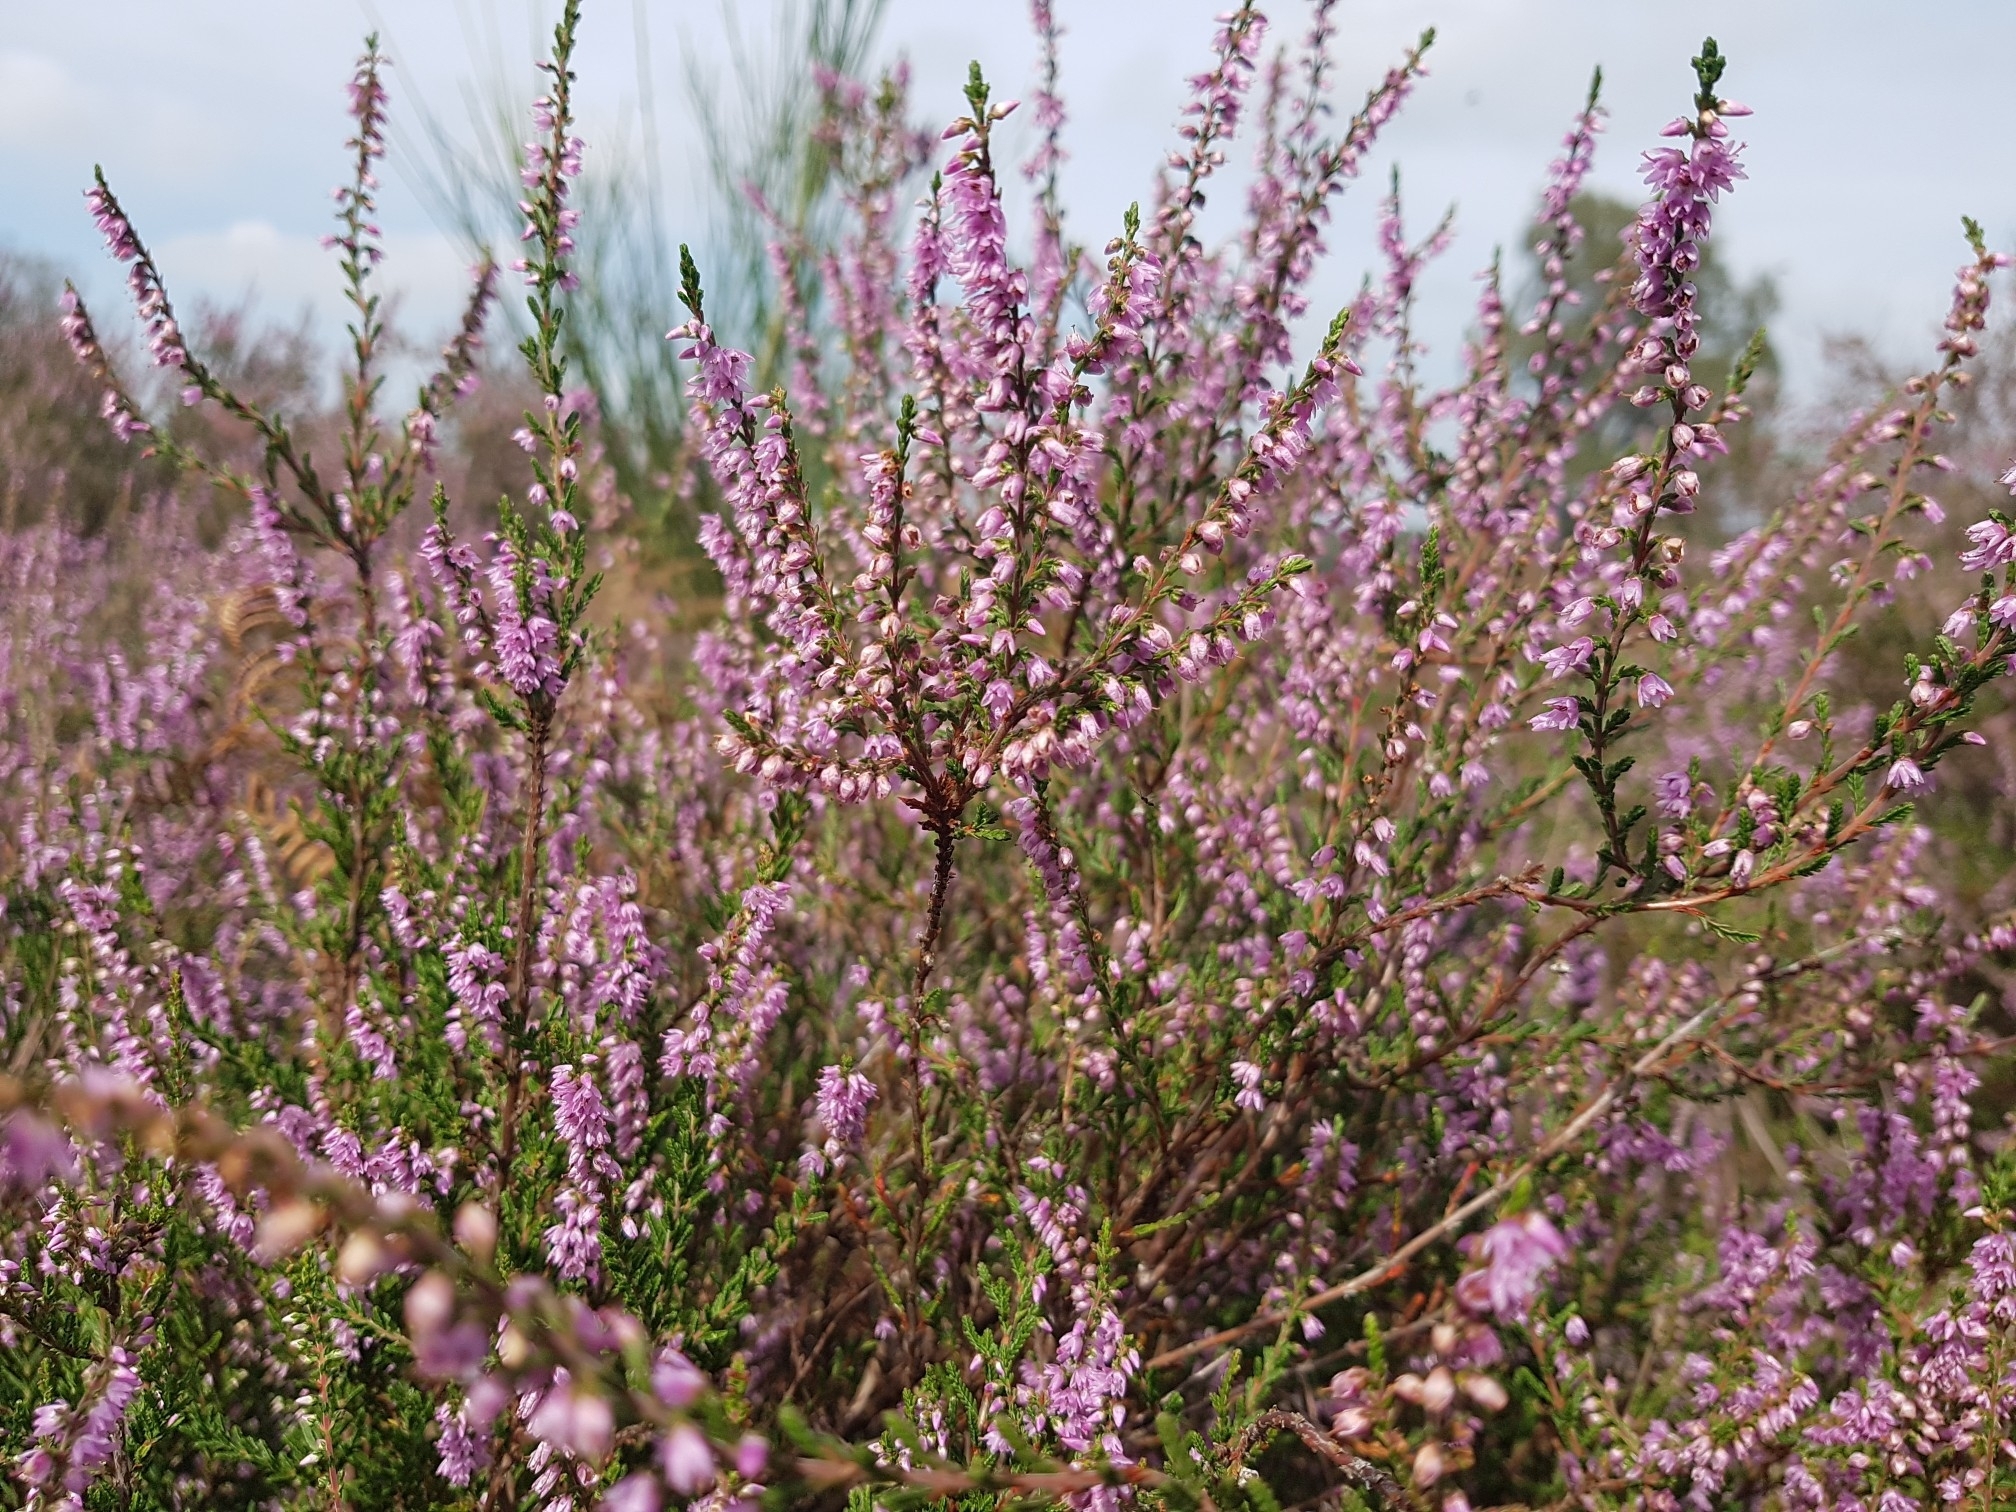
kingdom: Plantae
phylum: Tracheophyta
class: Magnoliopsida
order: Ericales
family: Ericaceae
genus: Calluna
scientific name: Calluna vulgaris
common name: Heather
